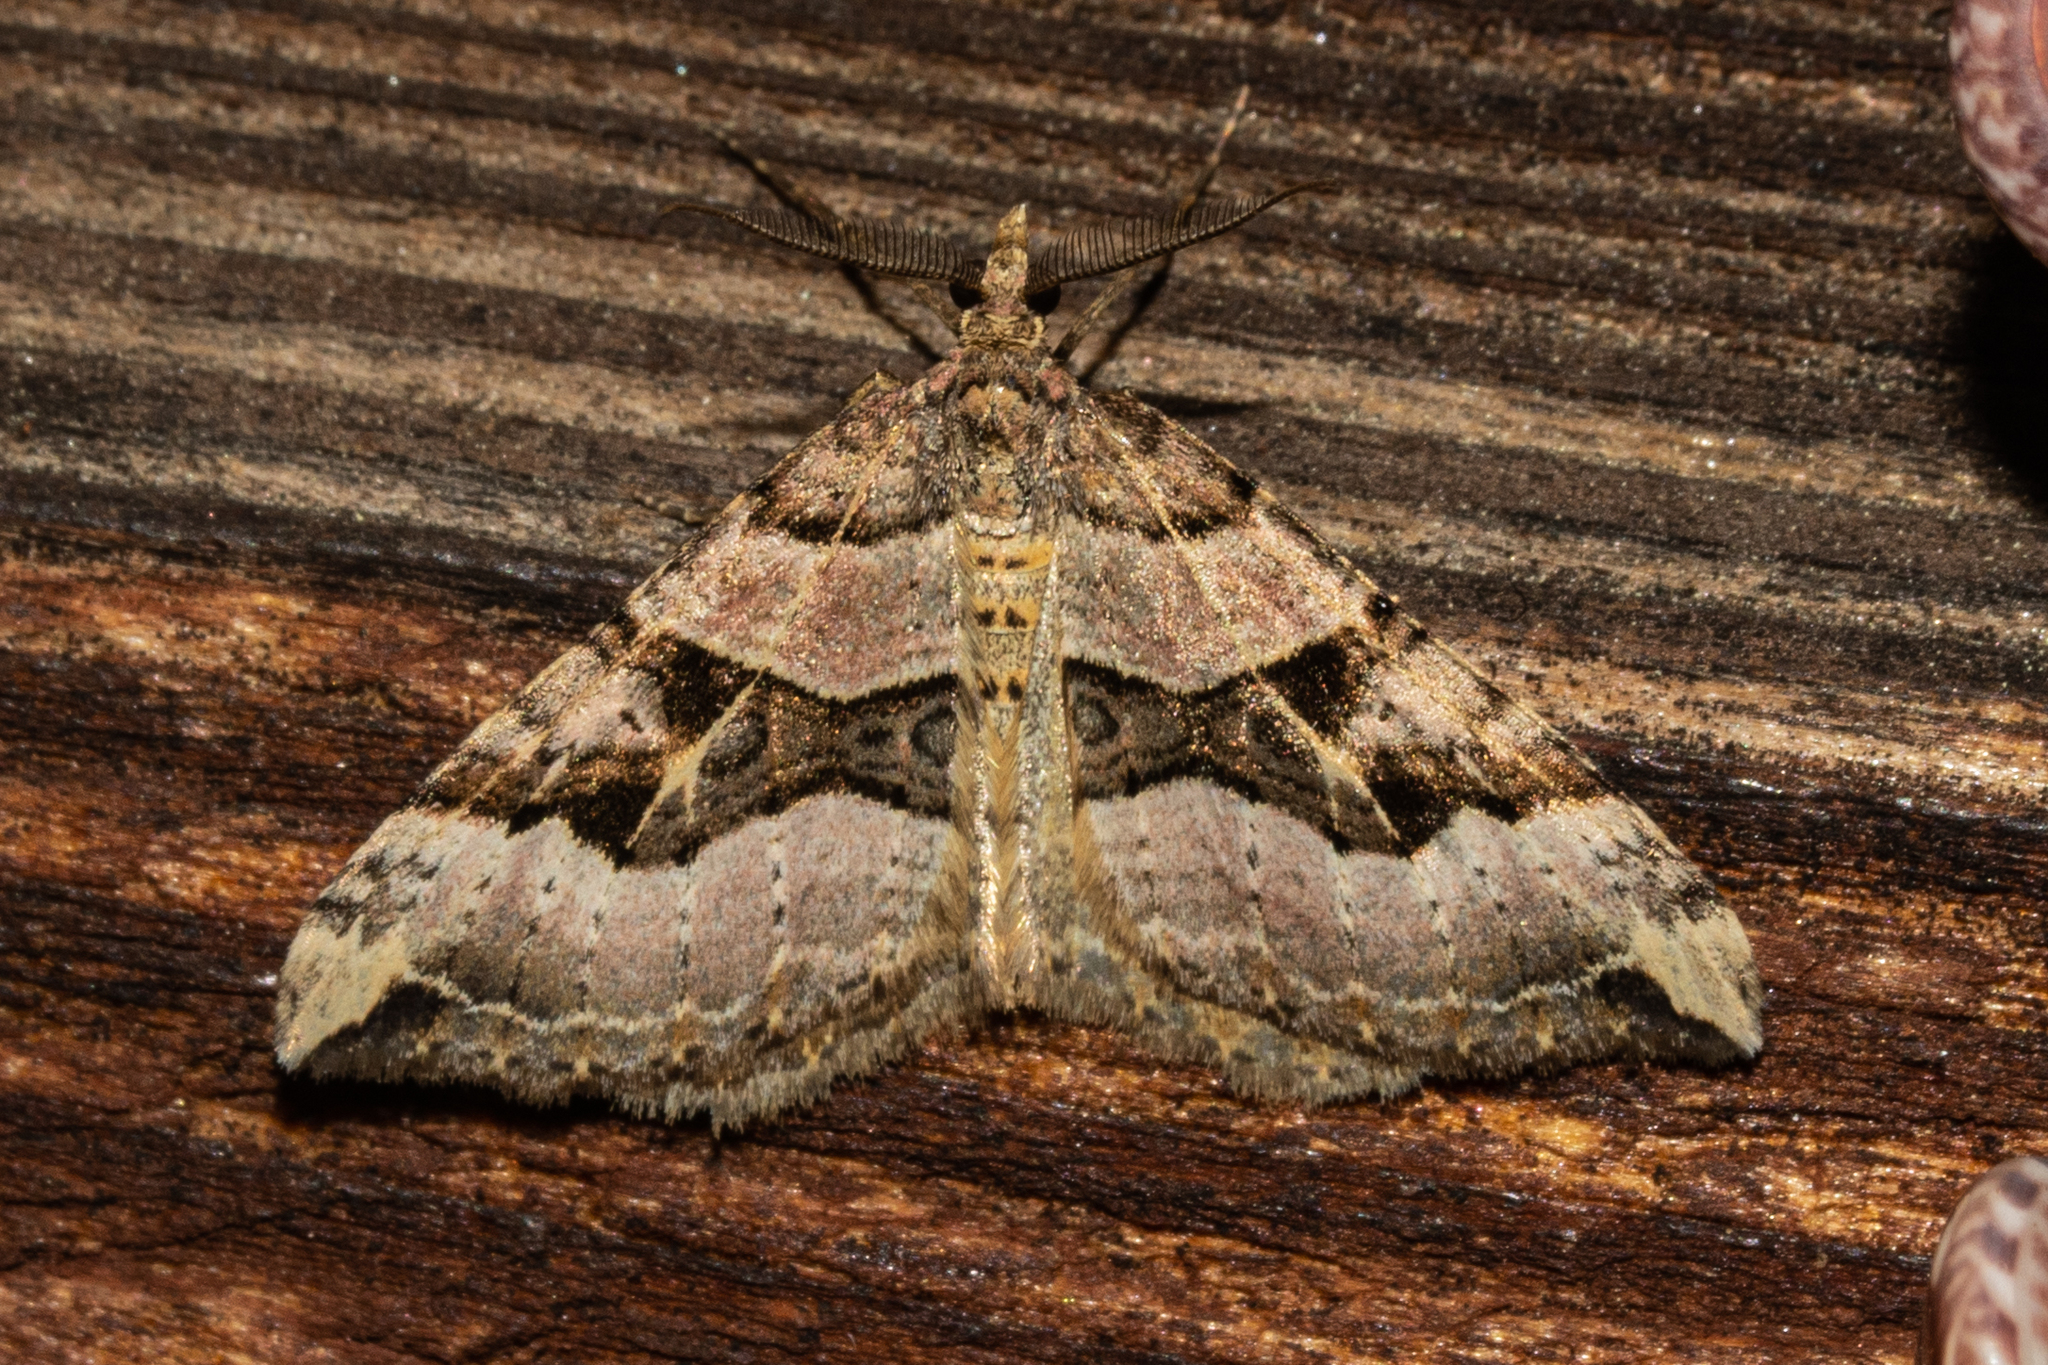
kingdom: Animalia
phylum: Arthropoda
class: Insecta
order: Lepidoptera
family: Geometridae
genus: Xanthorhoe
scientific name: Xanthorhoe semifissata
